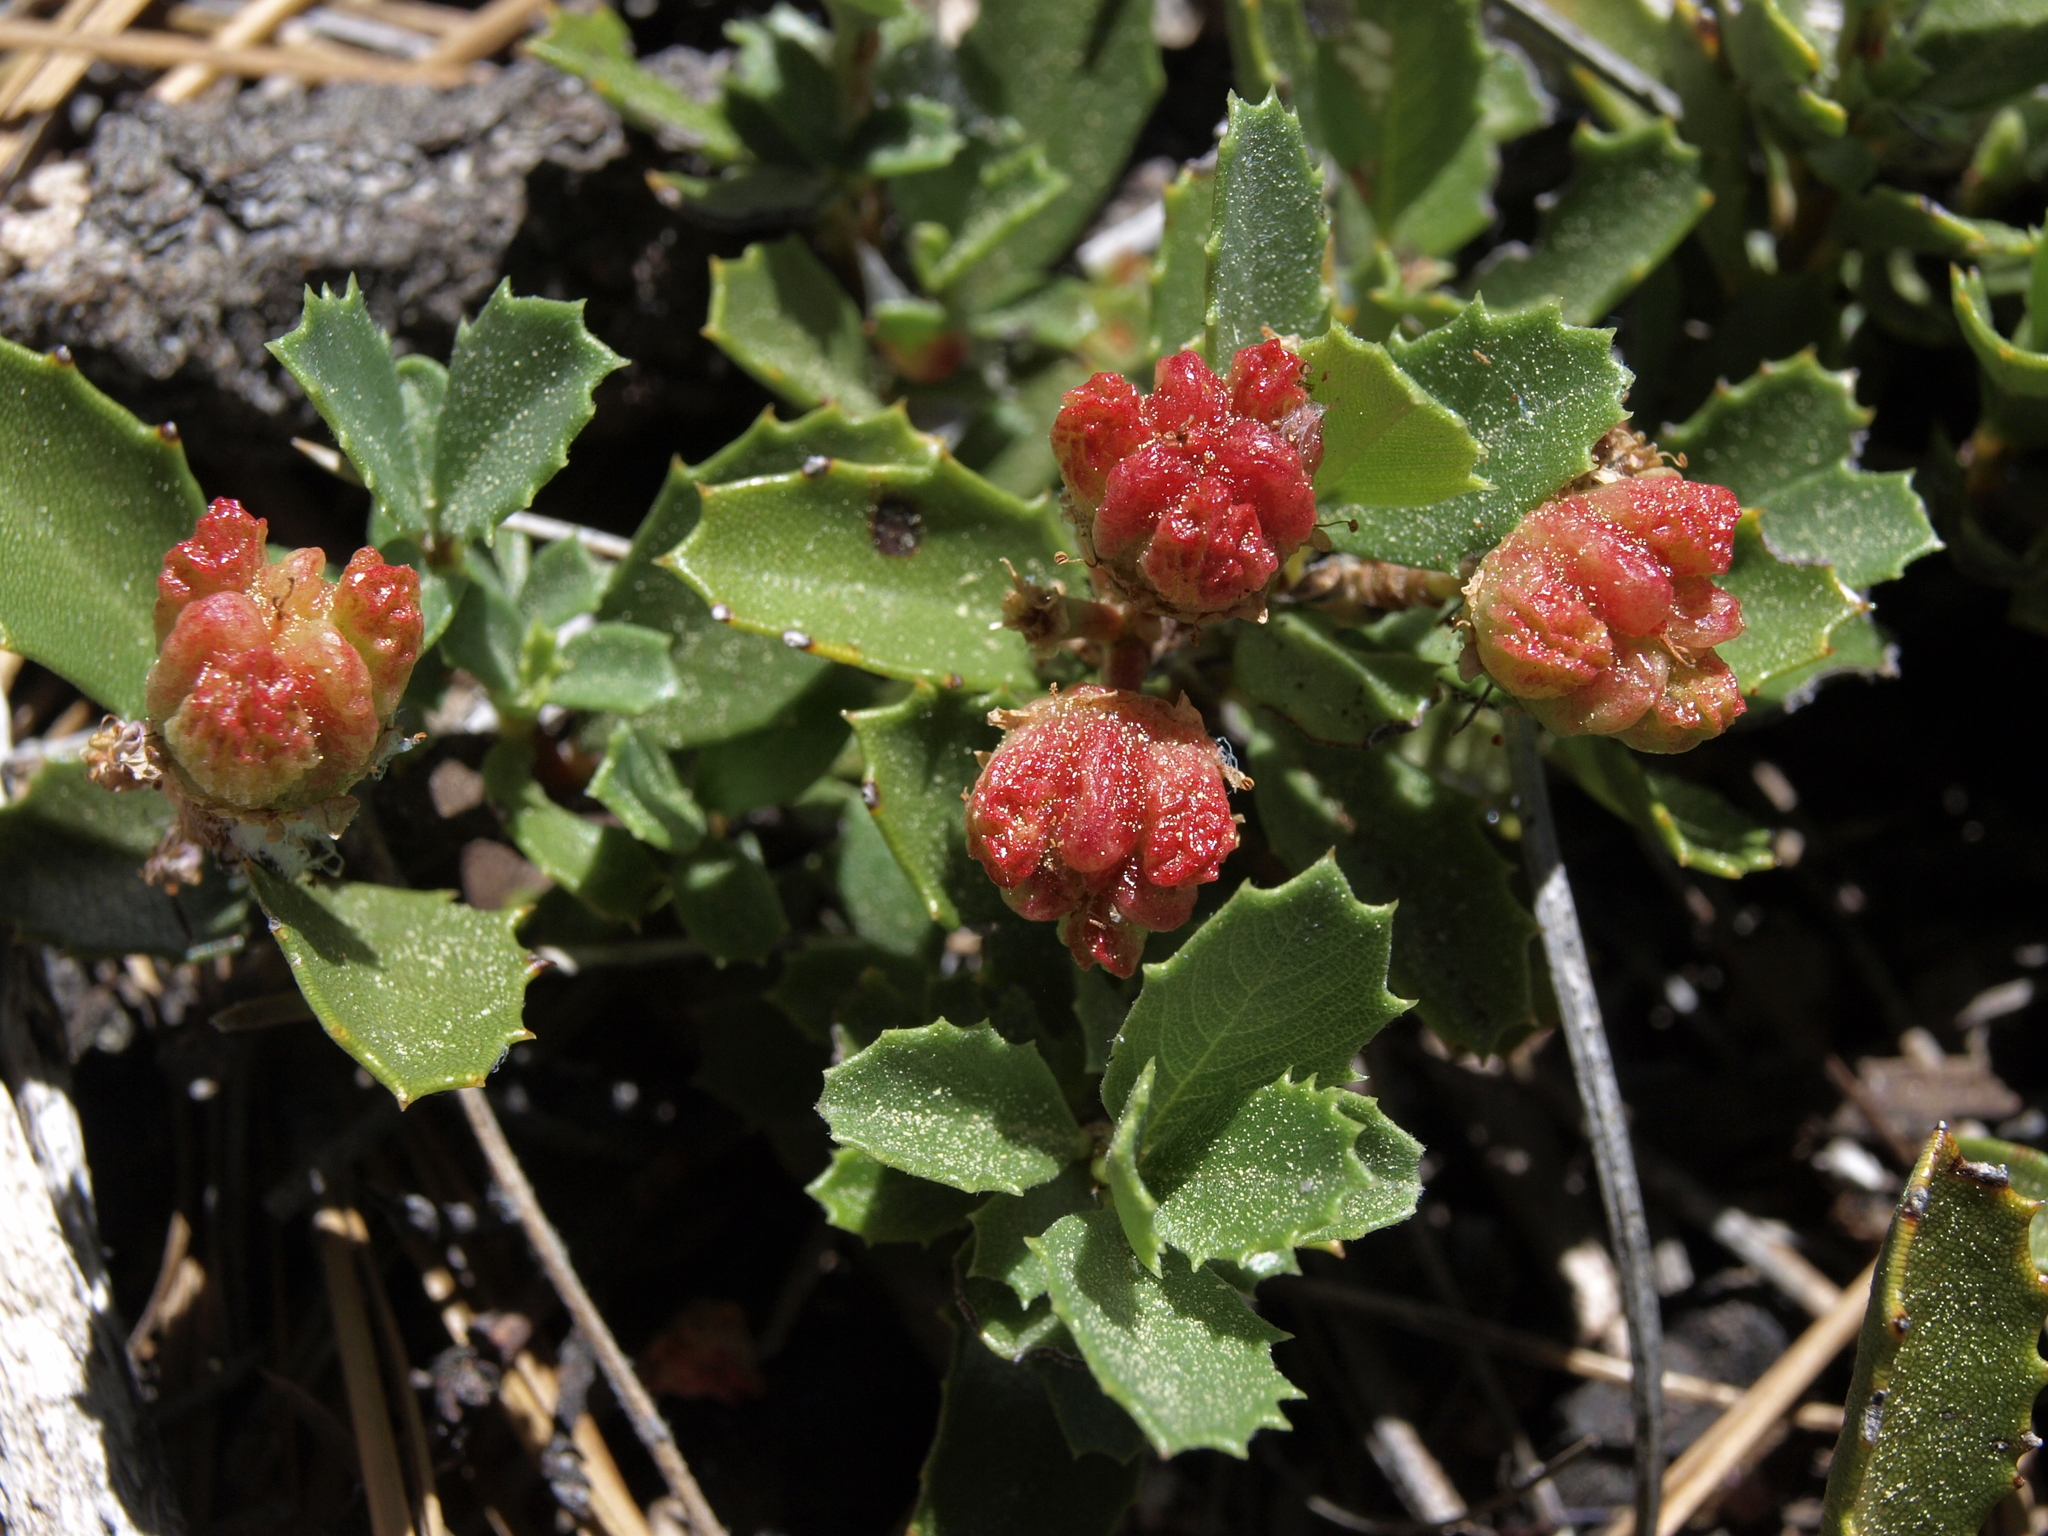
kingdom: Plantae
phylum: Tracheophyta
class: Magnoliopsida
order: Rosales
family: Rhamnaceae
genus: Ceanothus
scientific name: Ceanothus prostratus
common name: Mahala-mat
